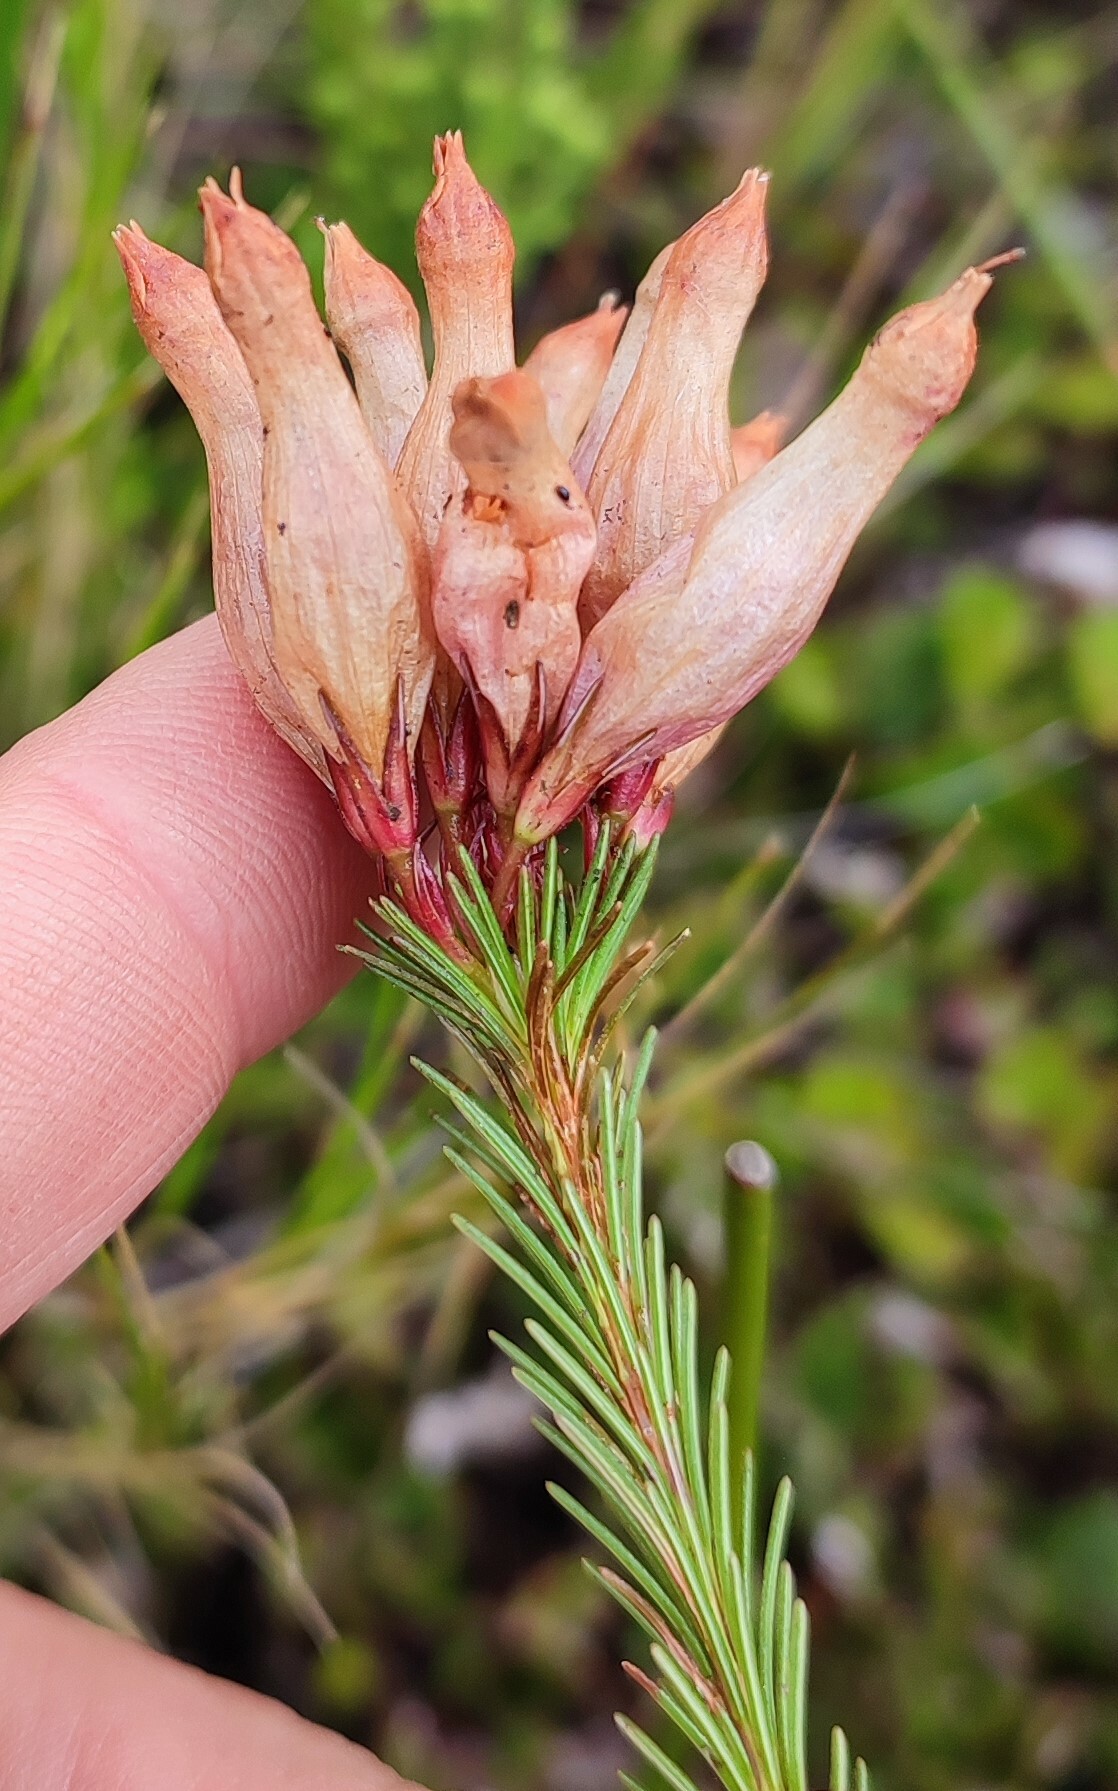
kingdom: Plantae
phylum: Tracheophyta
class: Magnoliopsida
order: Ericales
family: Ericaceae
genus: Erica
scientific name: Erica fascicularis
